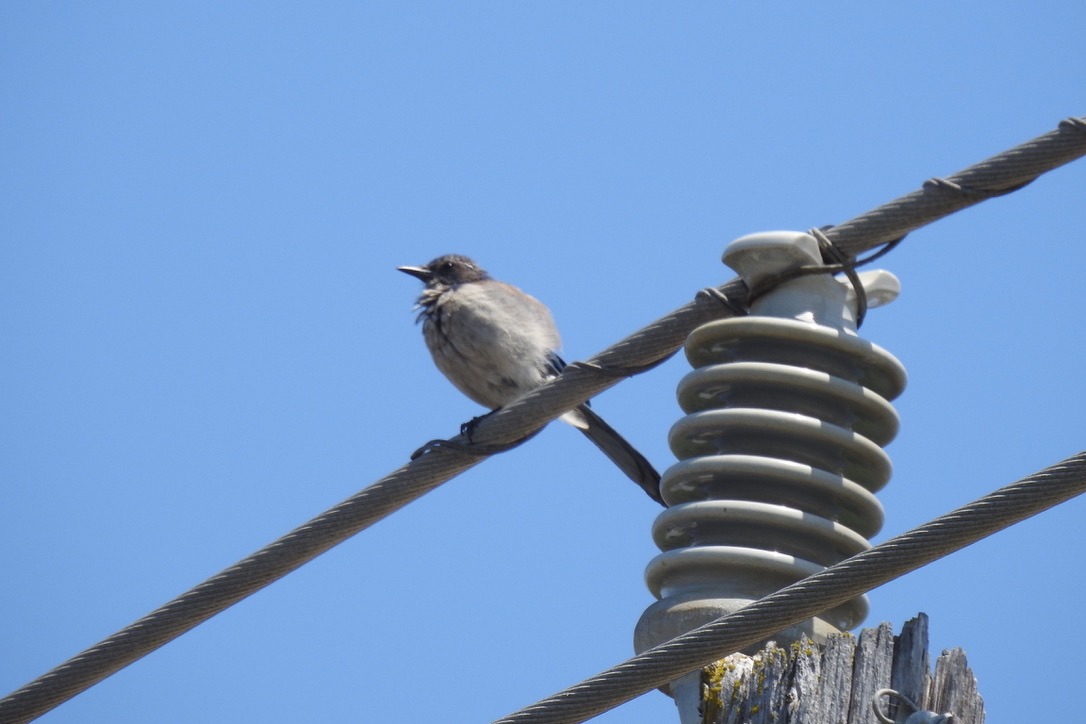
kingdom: Animalia
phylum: Chordata
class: Aves
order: Passeriformes
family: Corvidae
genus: Aphelocoma
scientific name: Aphelocoma californica
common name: California scrub-jay
